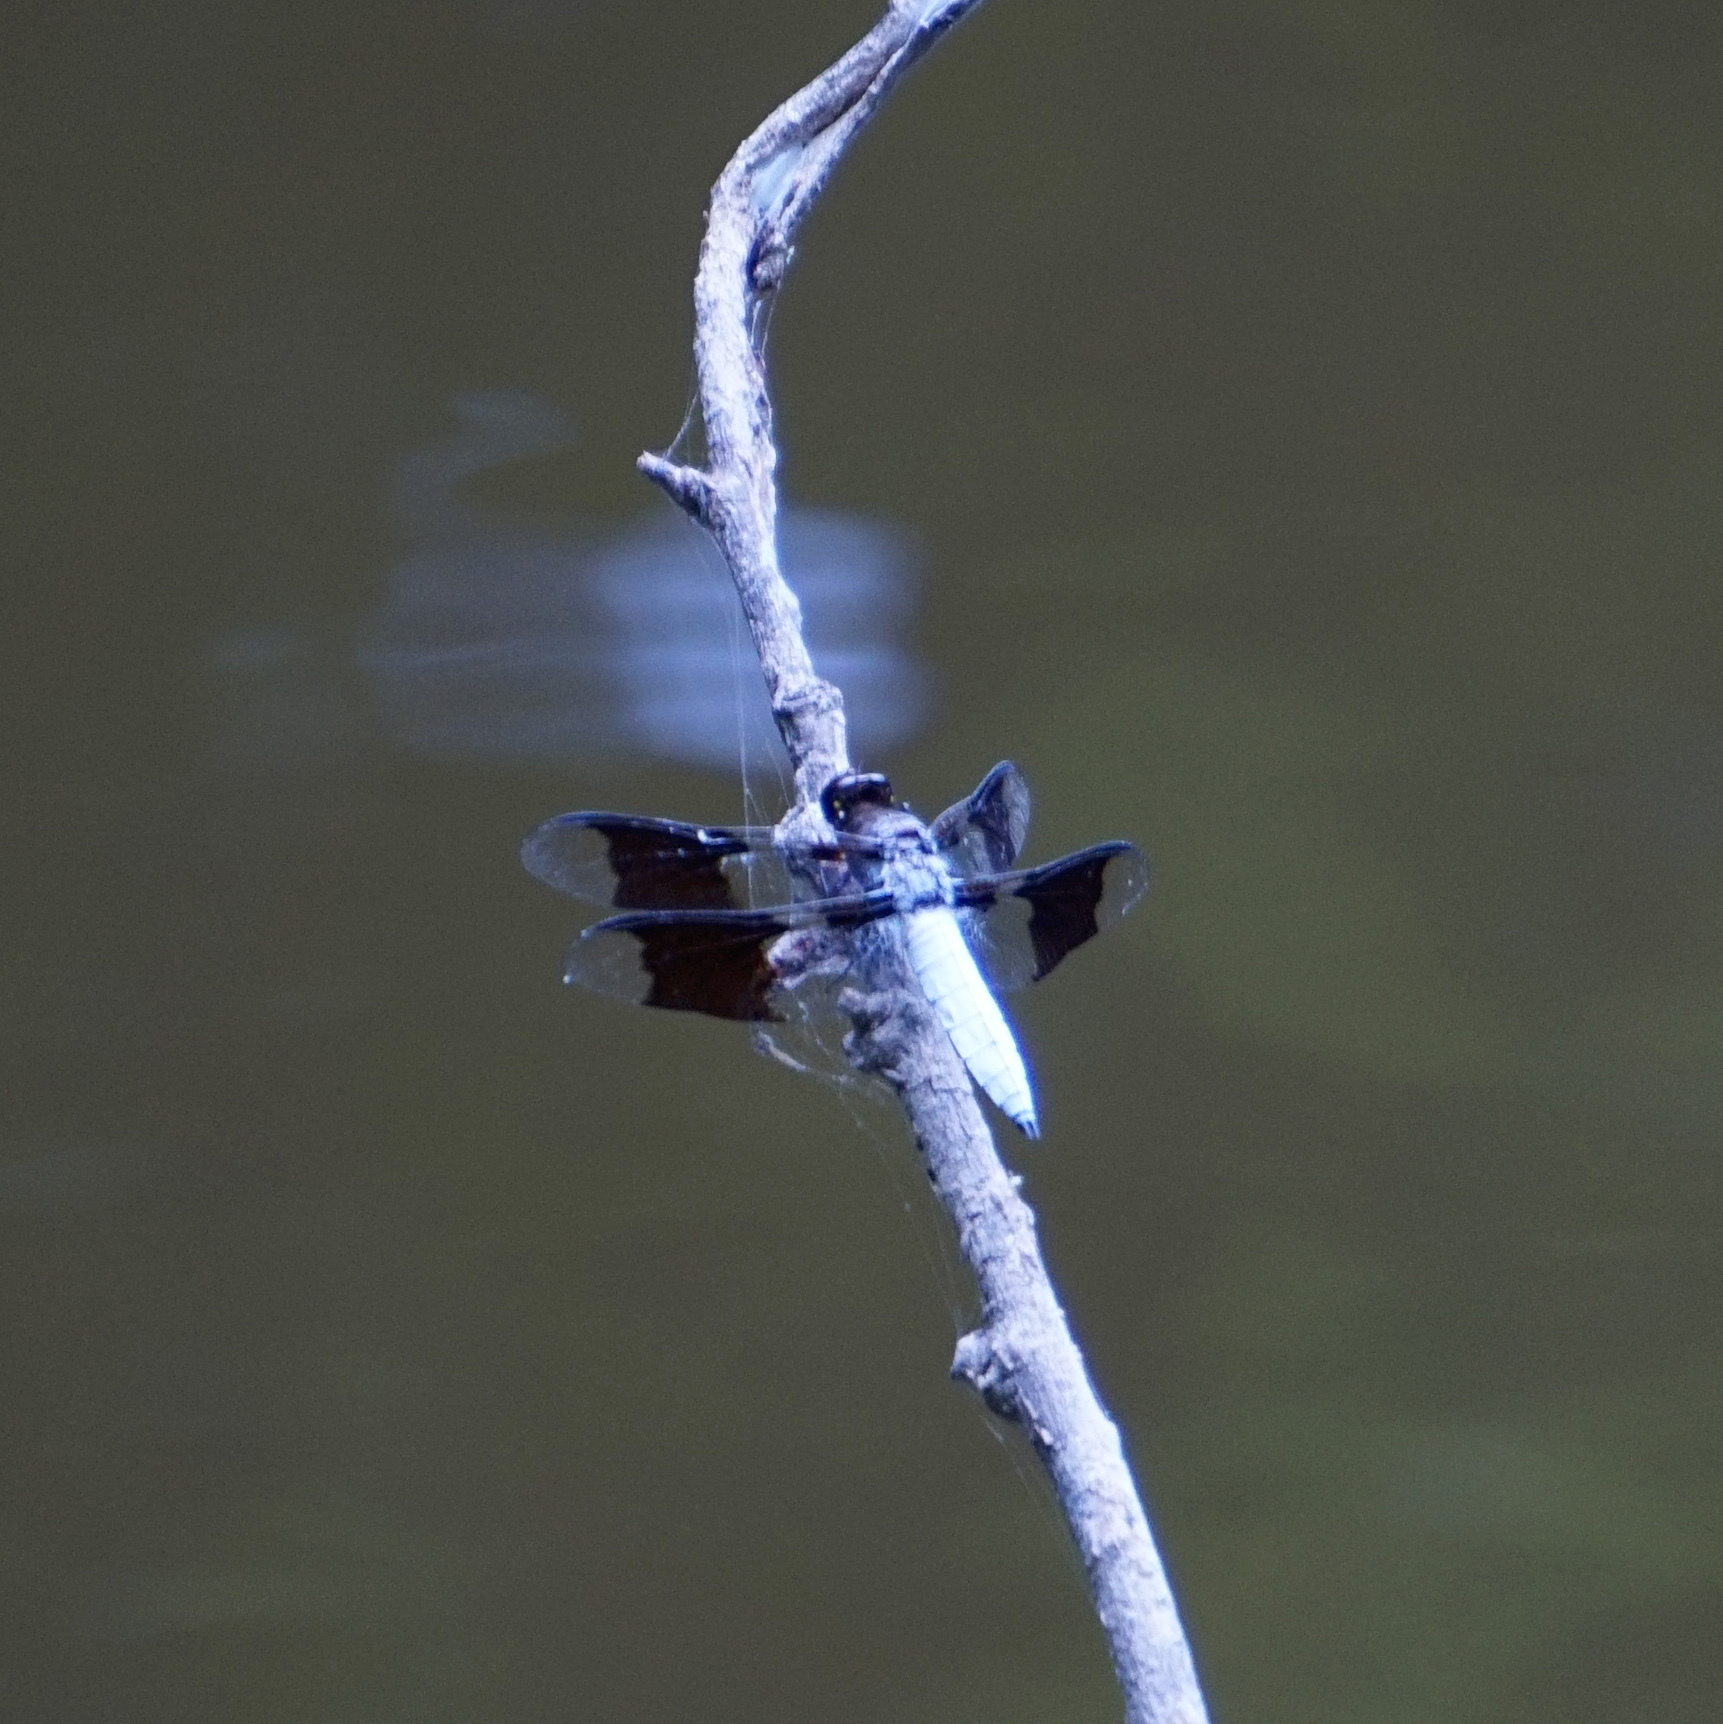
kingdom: Animalia
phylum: Arthropoda
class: Insecta
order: Odonata
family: Libellulidae
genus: Plathemis
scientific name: Plathemis lydia
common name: Common whitetail
